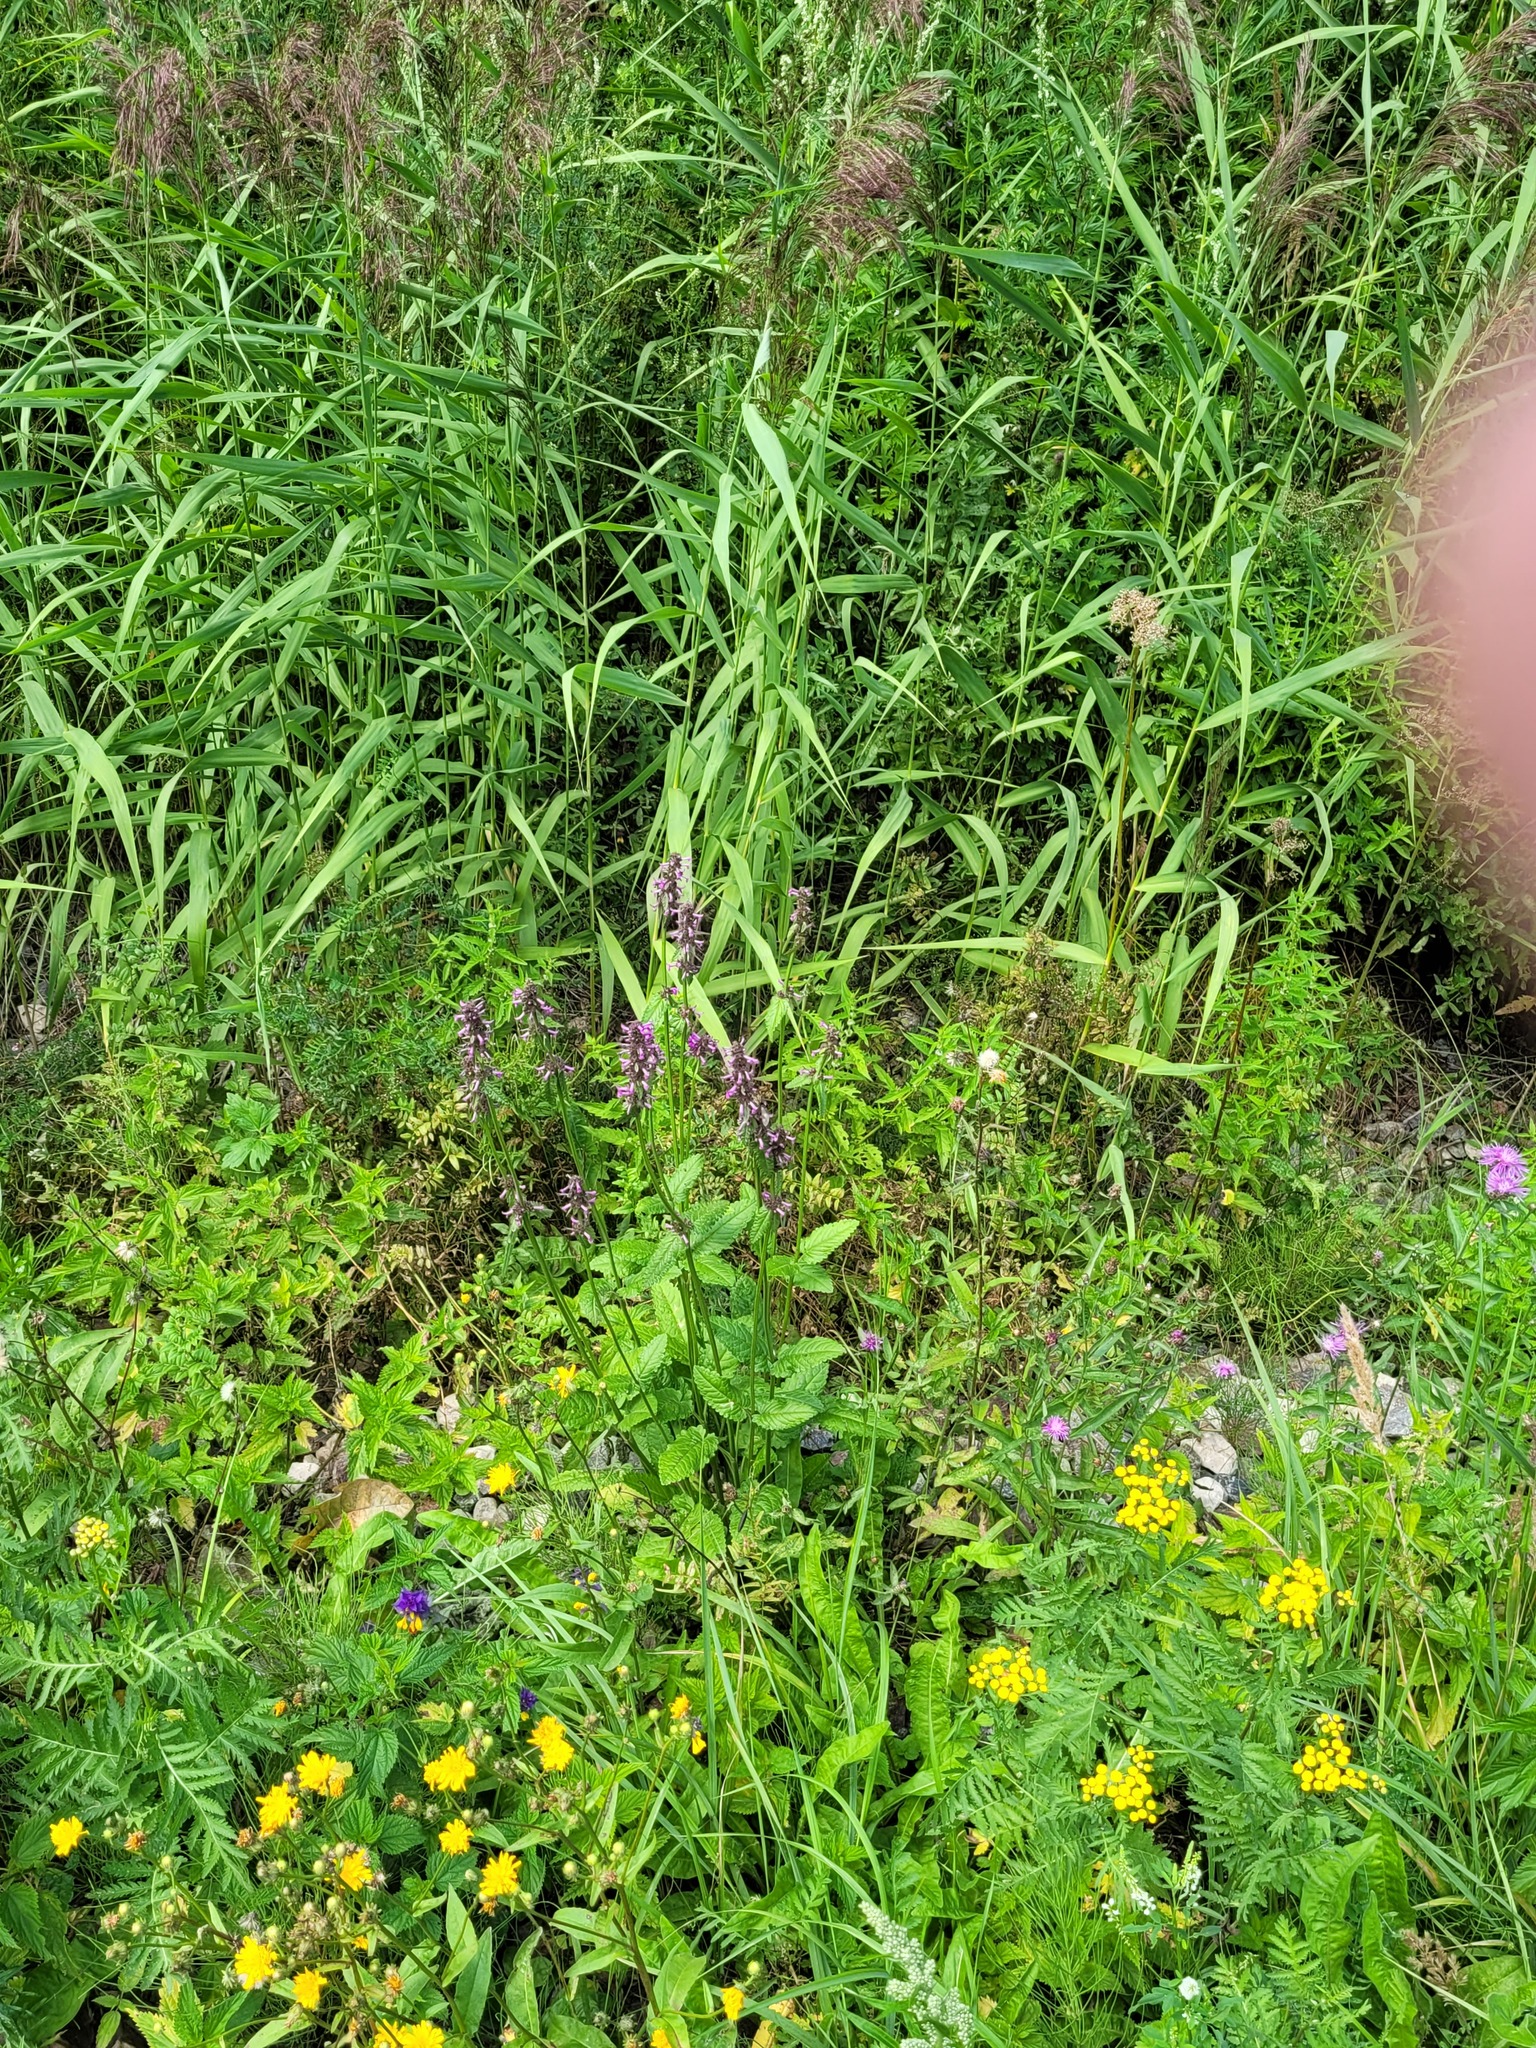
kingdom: Plantae
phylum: Tracheophyta
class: Magnoliopsida
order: Lamiales
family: Lamiaceae
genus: Betonica
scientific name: Betonica officinalis
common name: Bishop's-wort
